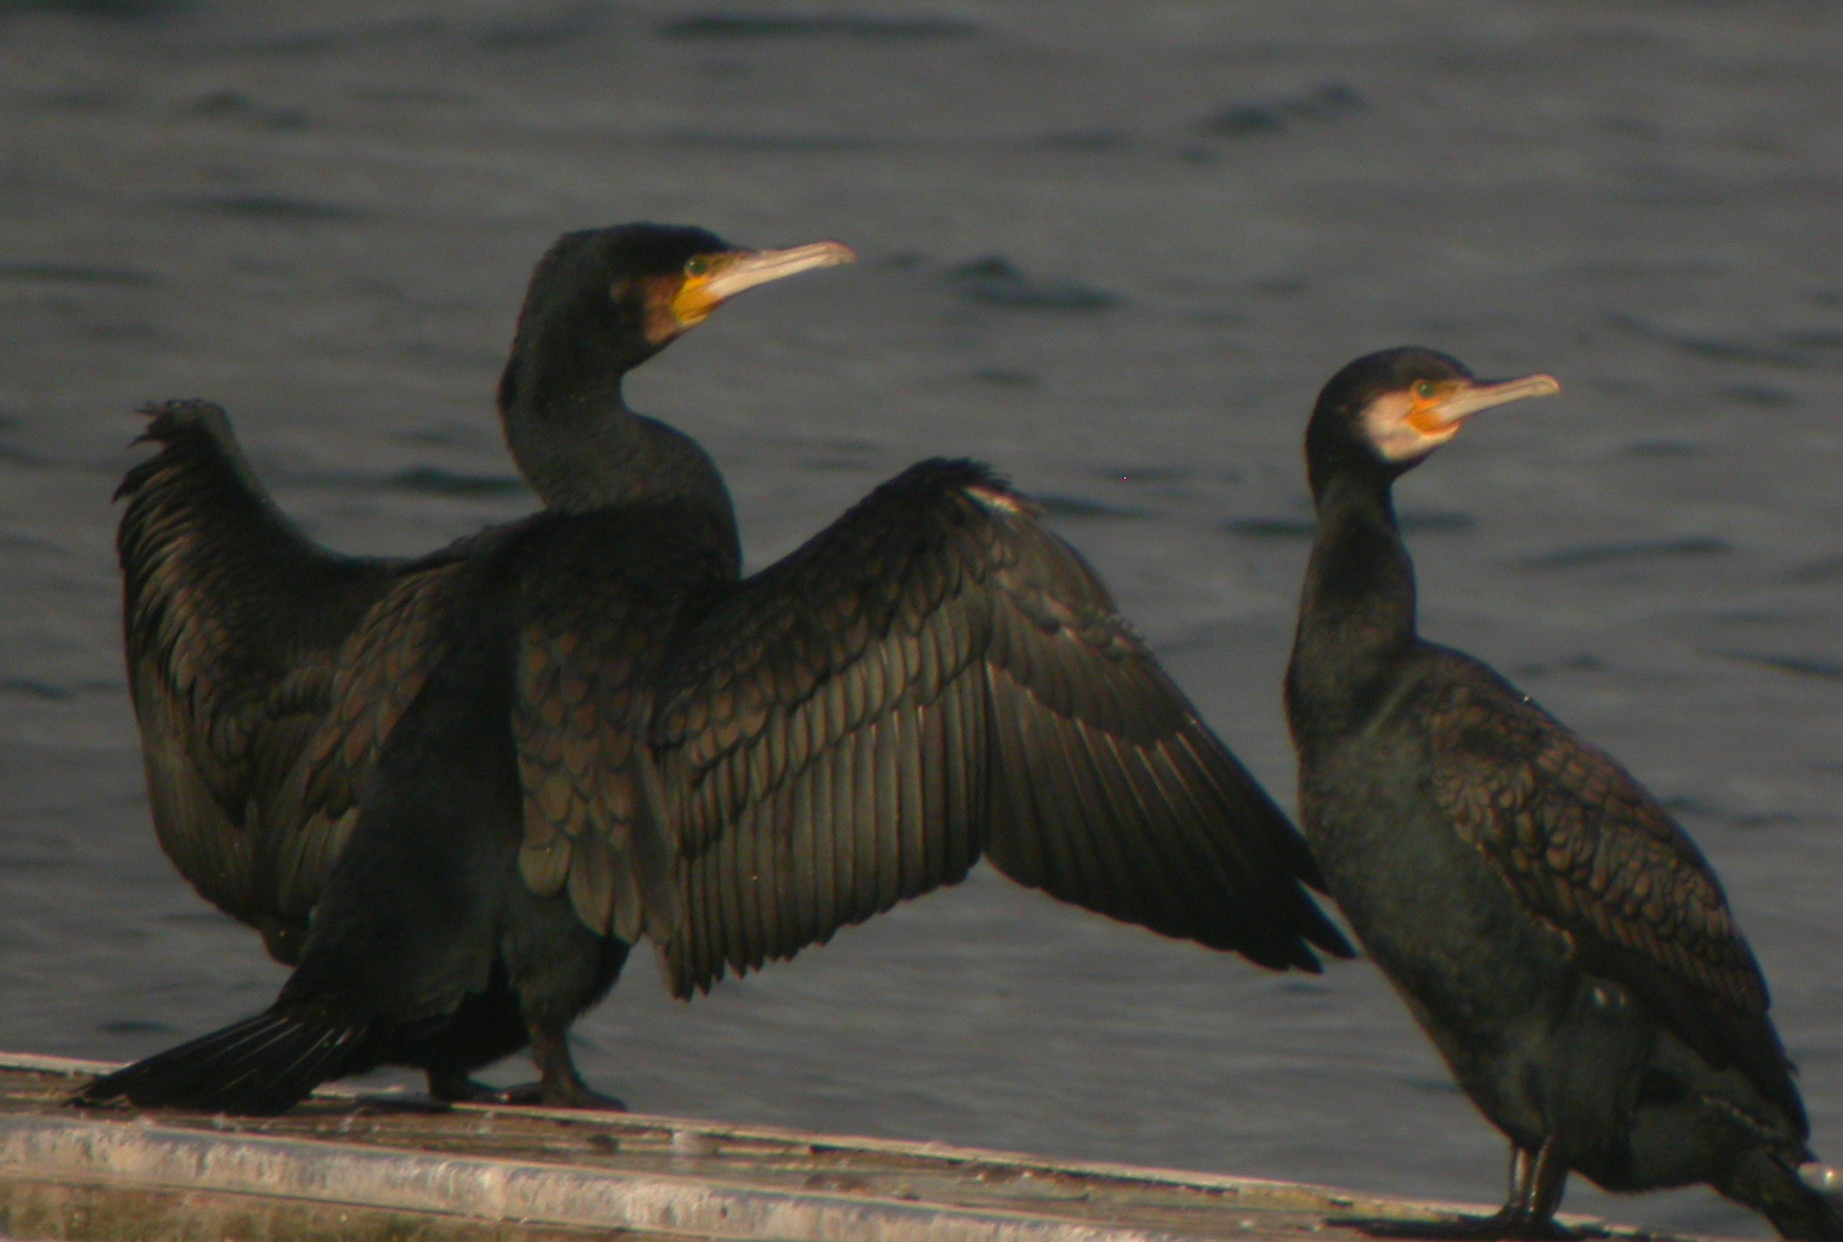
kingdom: Animalia
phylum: Chordata
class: Aves
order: Suliformes
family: Phalacrocoracidae
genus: Phalacrocorax
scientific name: Phalacrocorax carbo
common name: Great cormorant
